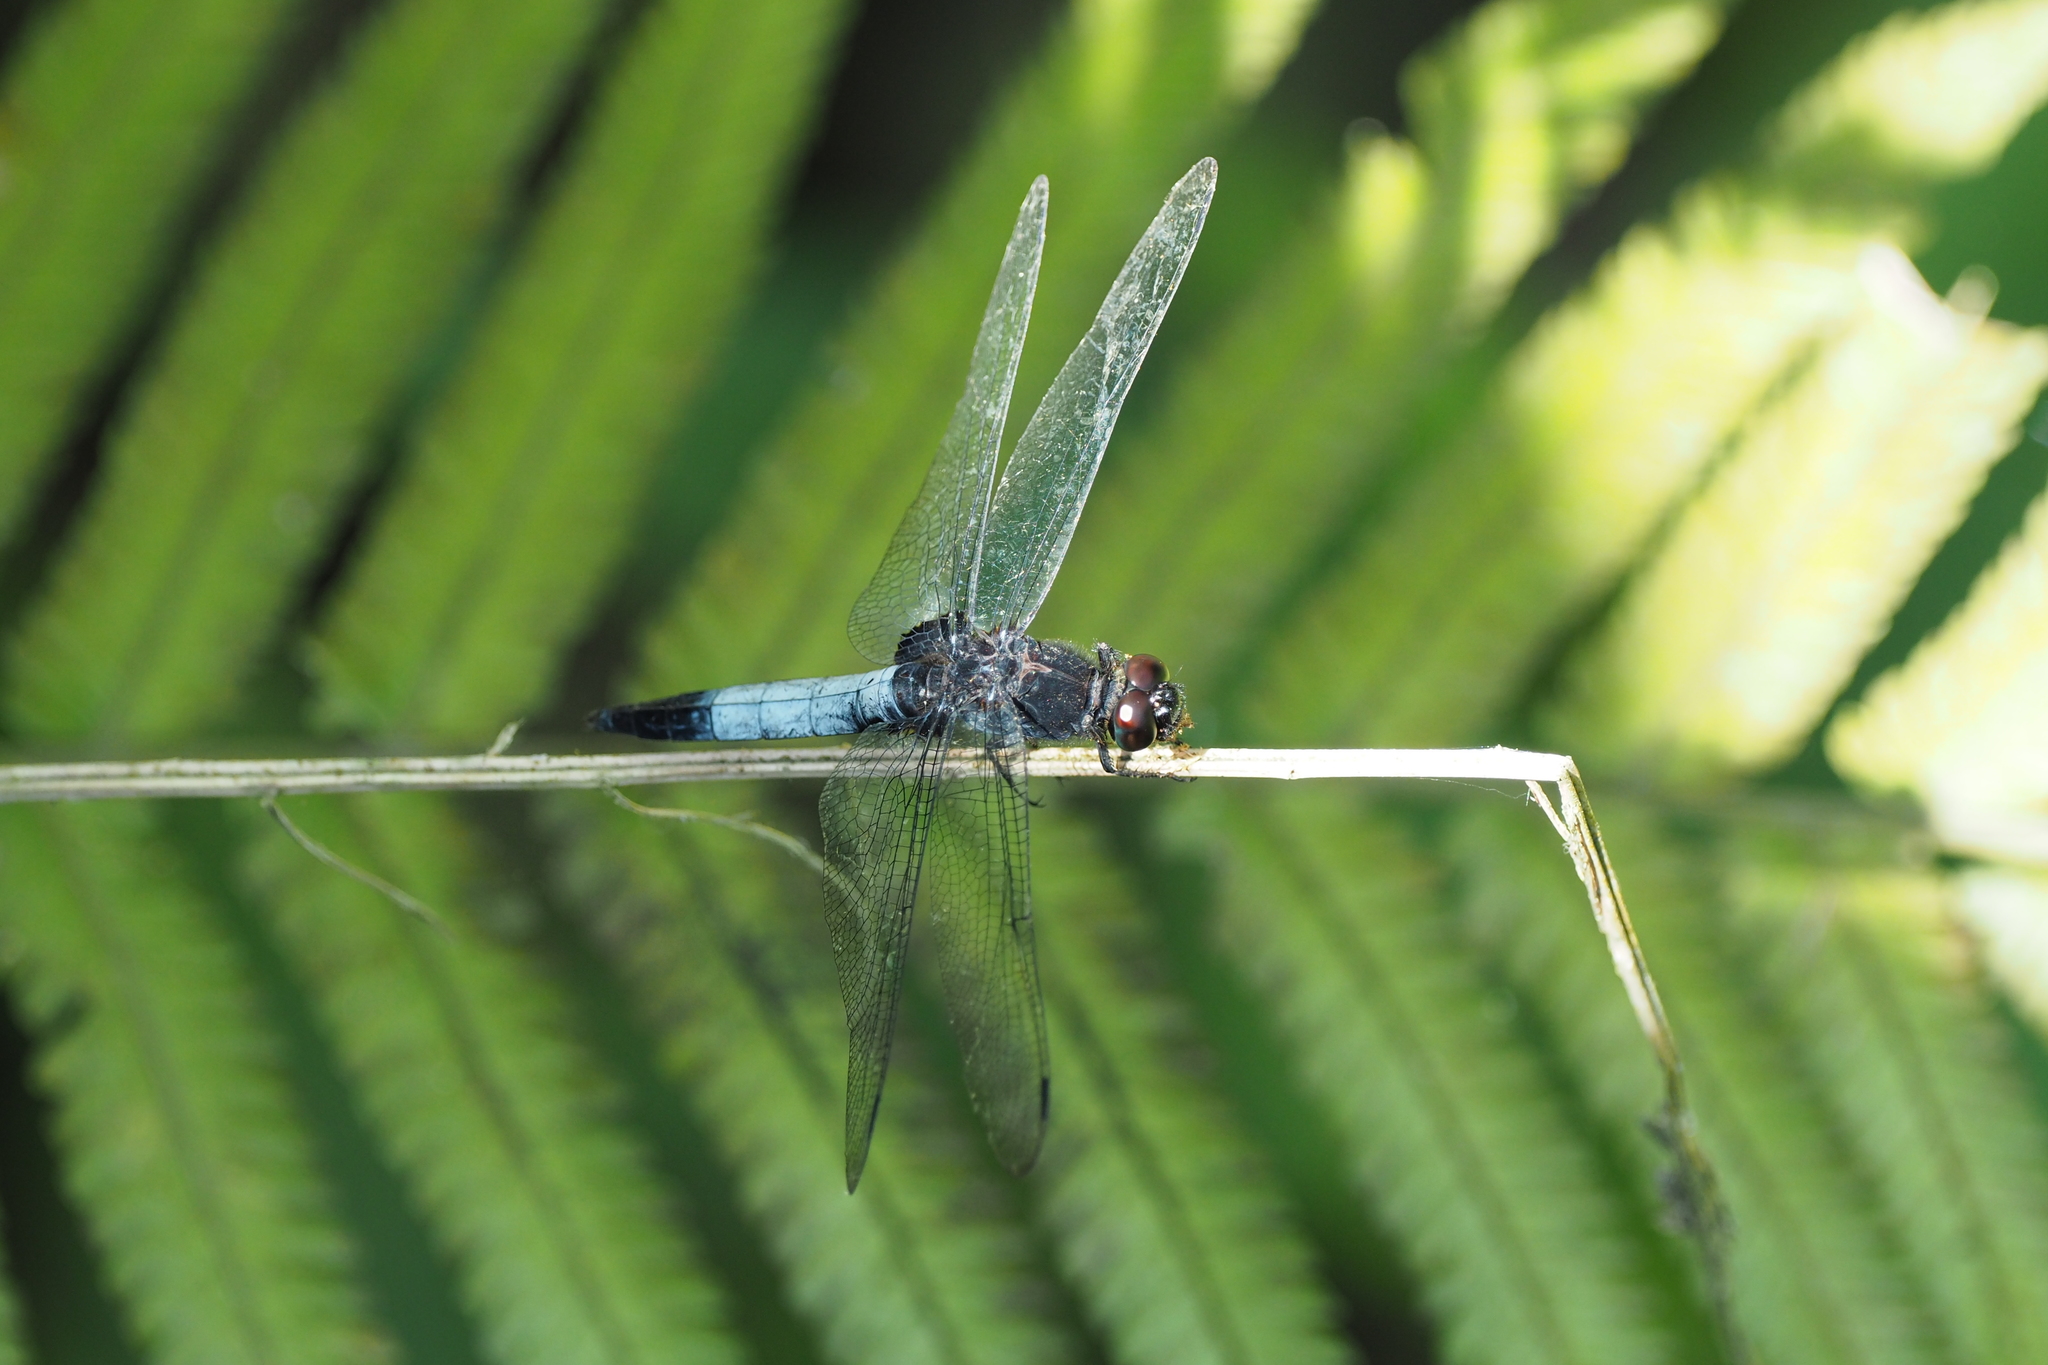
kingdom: Animalia
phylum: Arthropoda
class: Insecta
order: Odonata
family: Libellulidae
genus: Orthetrum
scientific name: Orthetrum triangulare
